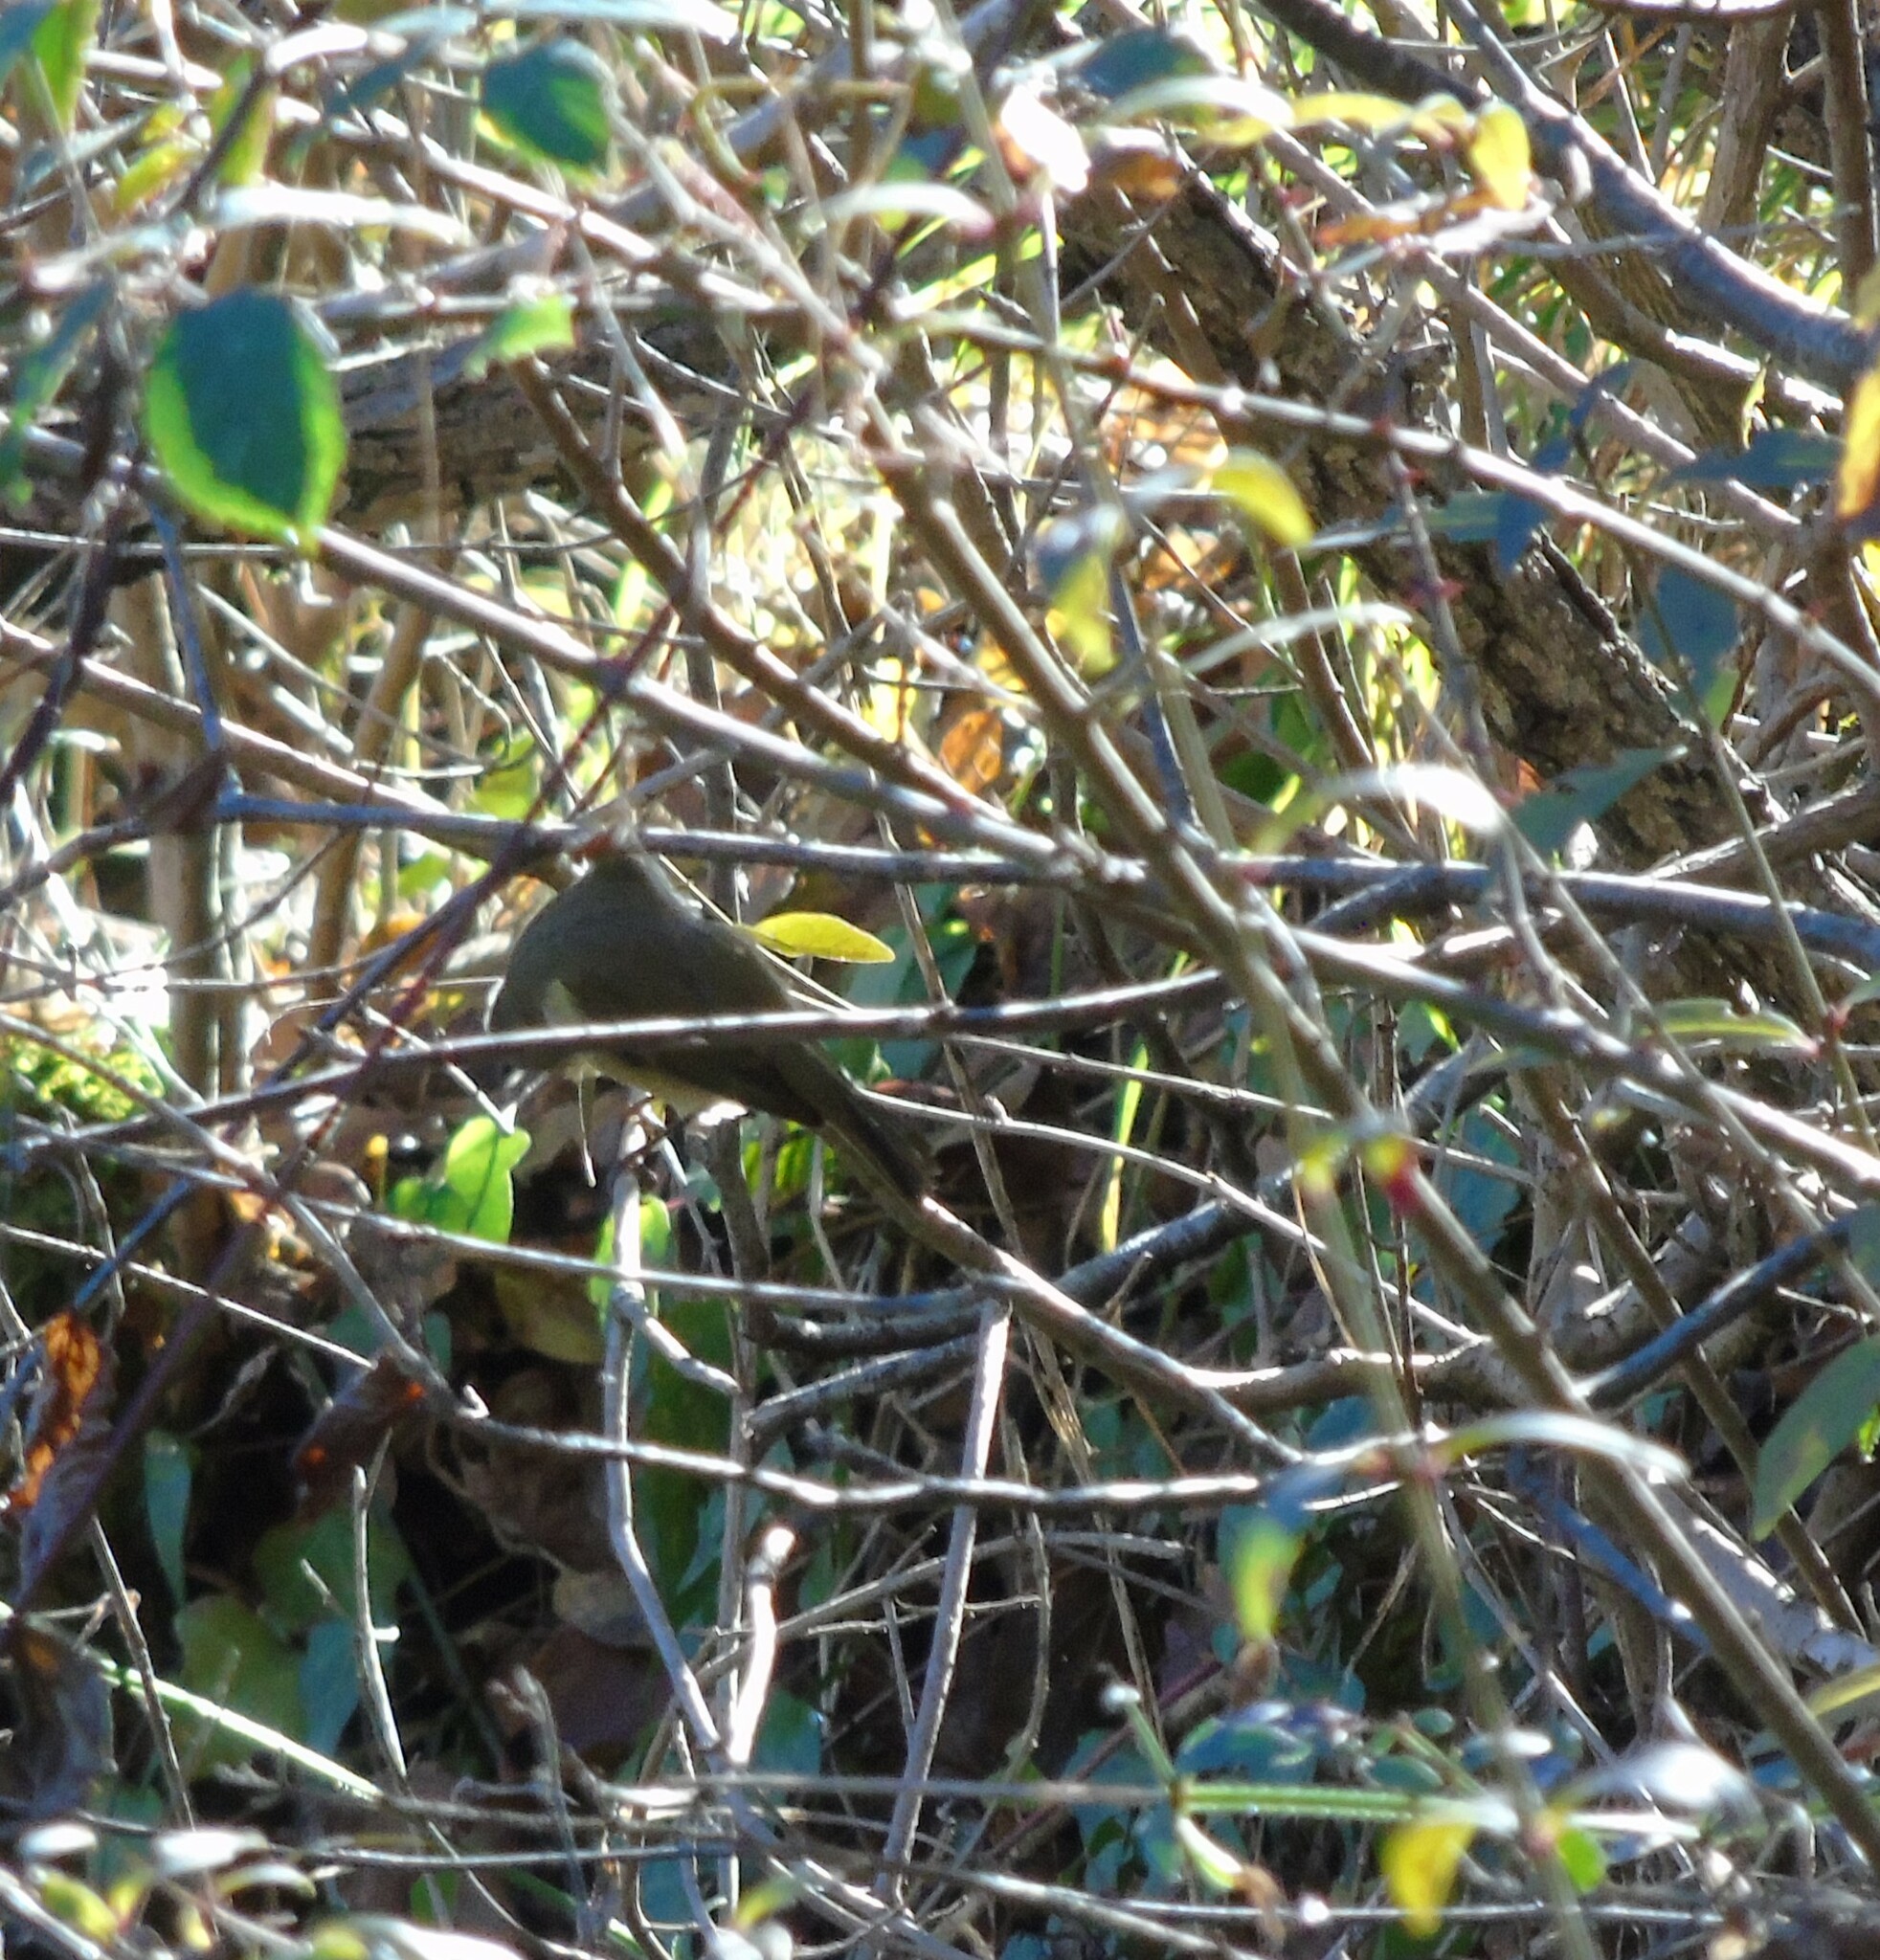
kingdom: Animalia
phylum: Chordata
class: Aves
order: Passeriformes
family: Phylloscopidae
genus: Phylloscopus
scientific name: Phylloscopus collybita
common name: Common chiffchaff
